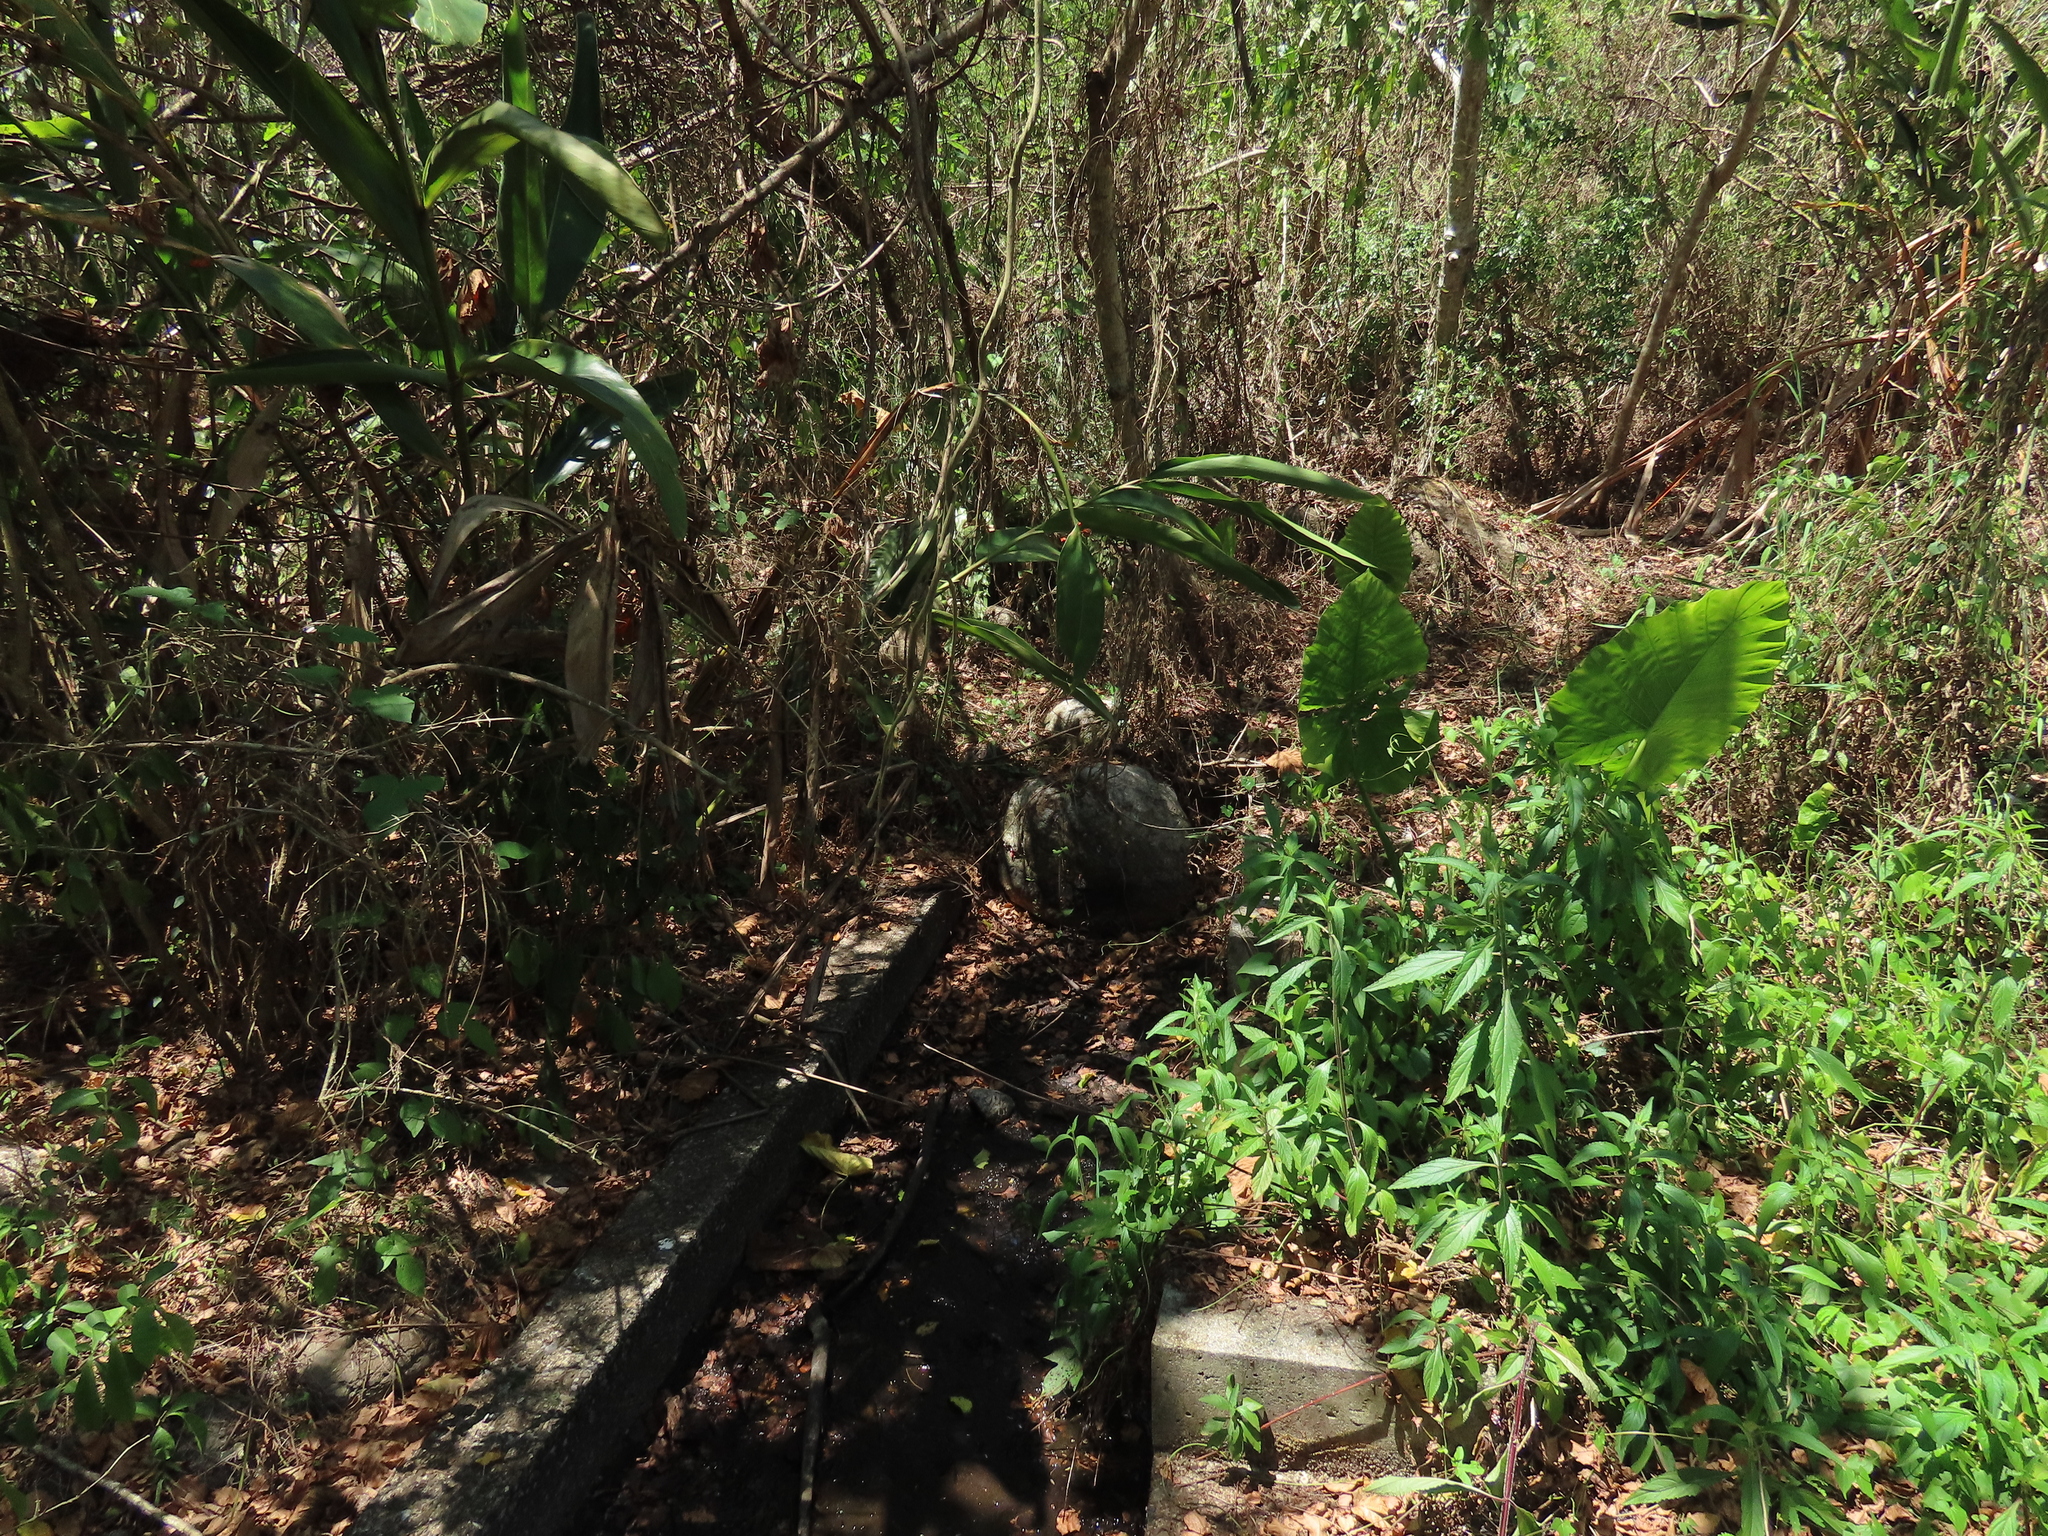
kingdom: Plantae
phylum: Tracheophyta
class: Liliopsida
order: Alismatales
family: Araceae
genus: Alocasia
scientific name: Alocasia odora
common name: Asian taro
